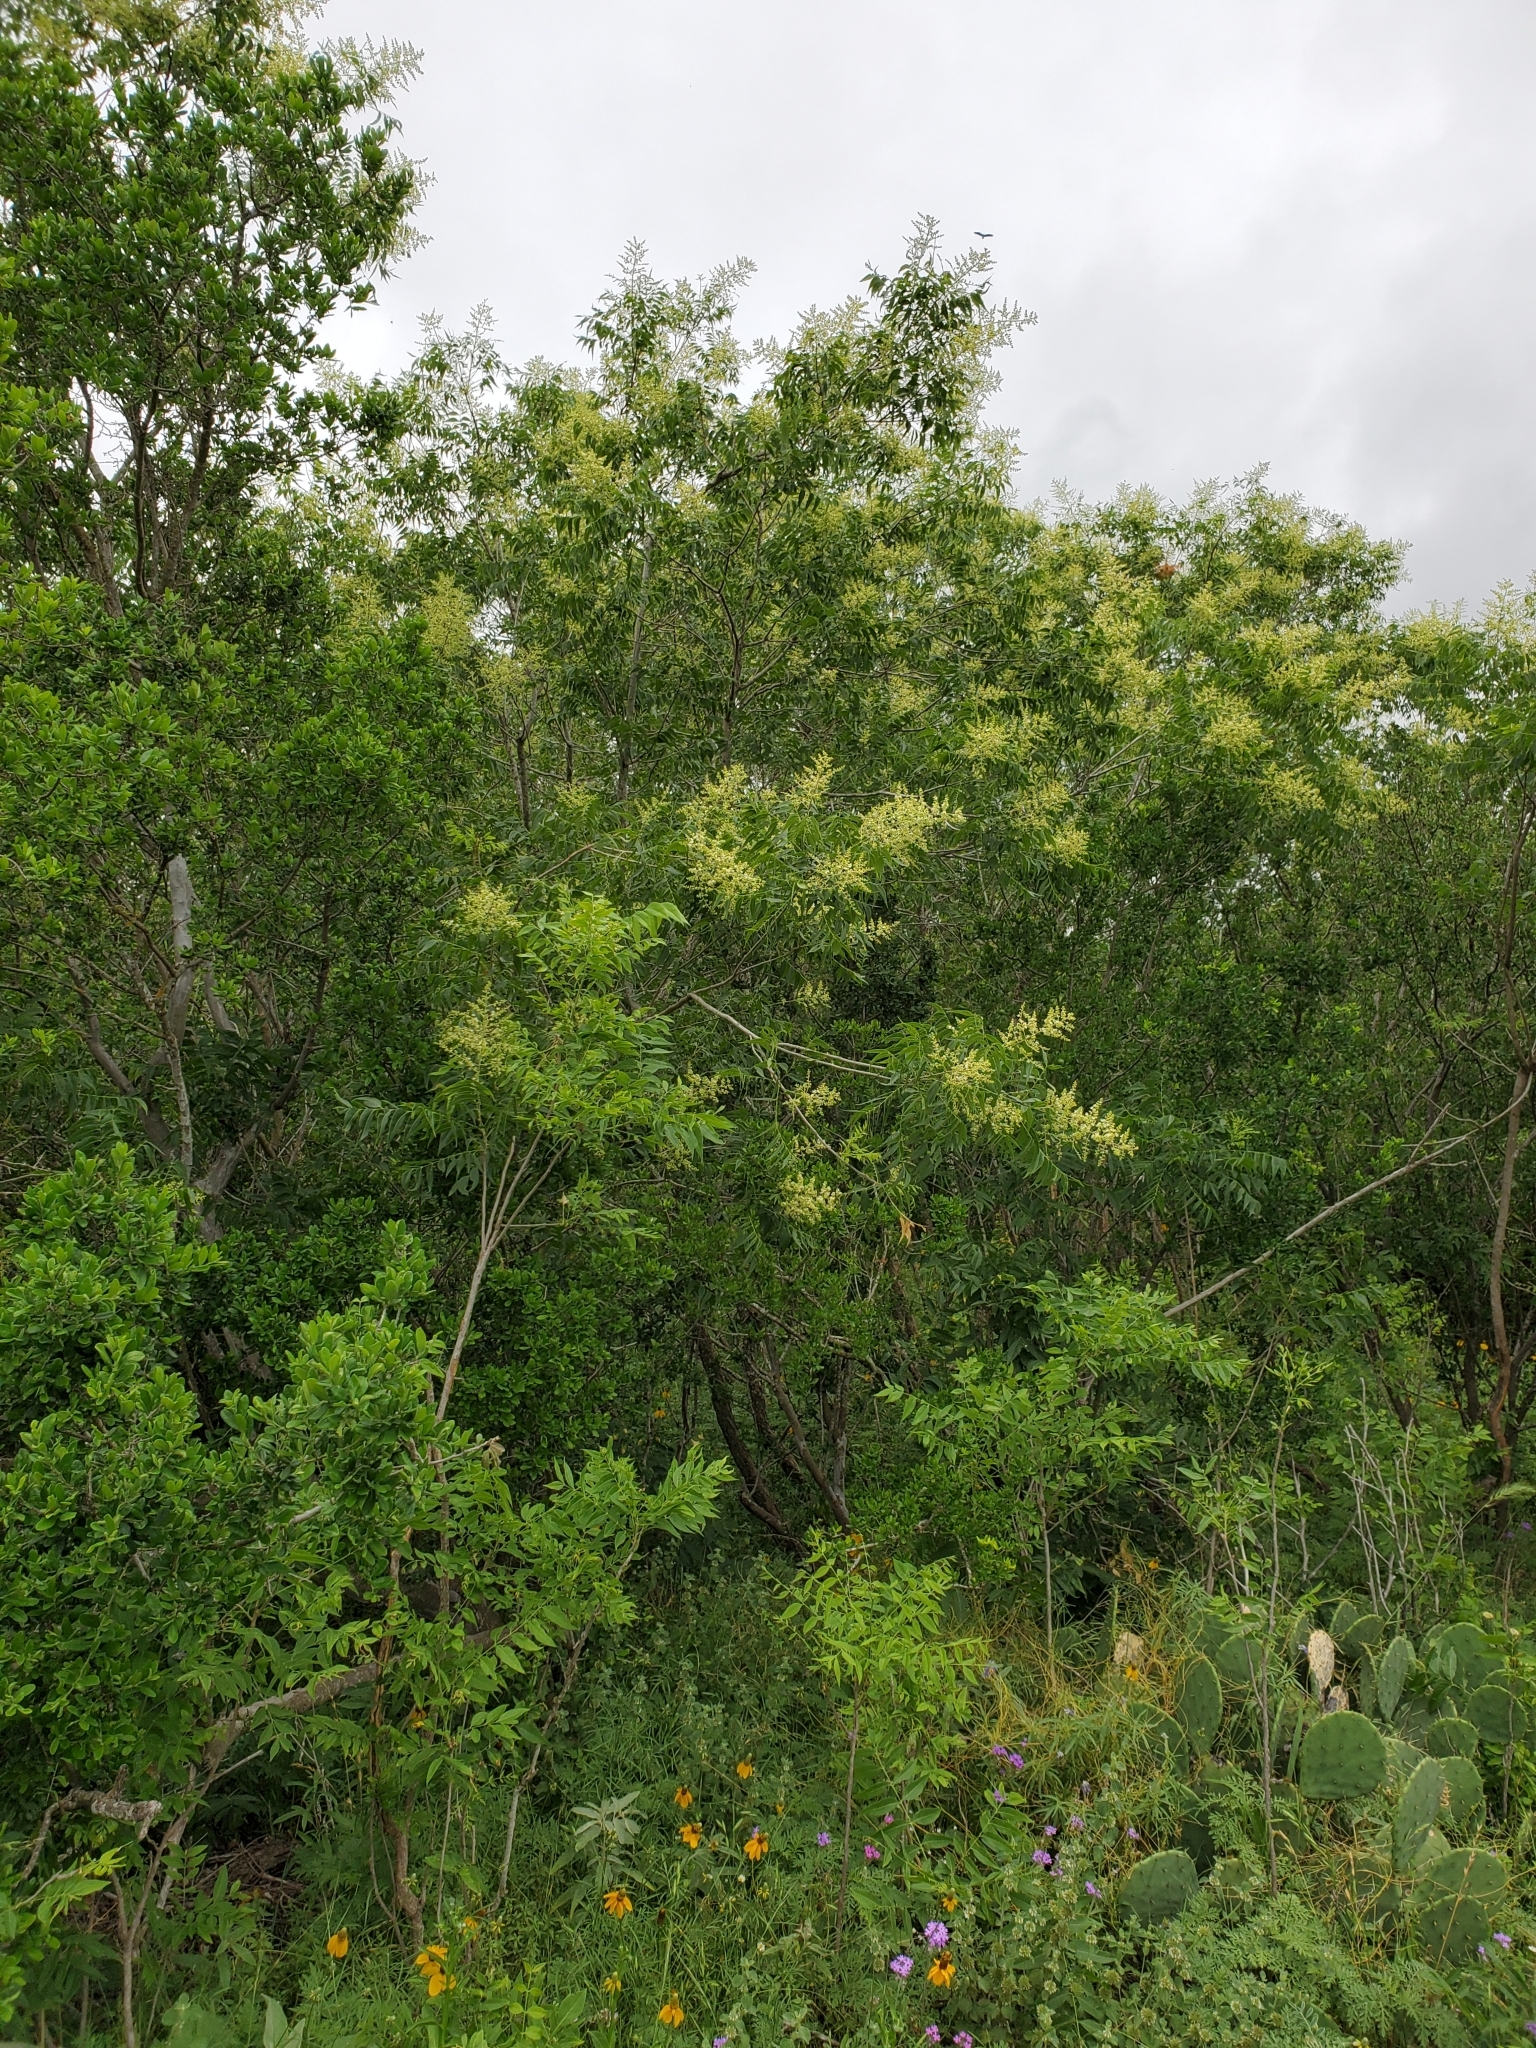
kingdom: Plantae
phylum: Tracheophyta
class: Magnoliopsida
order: Sapindales
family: Sapindaceae
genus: Sapindus
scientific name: Sapindus drummondii
